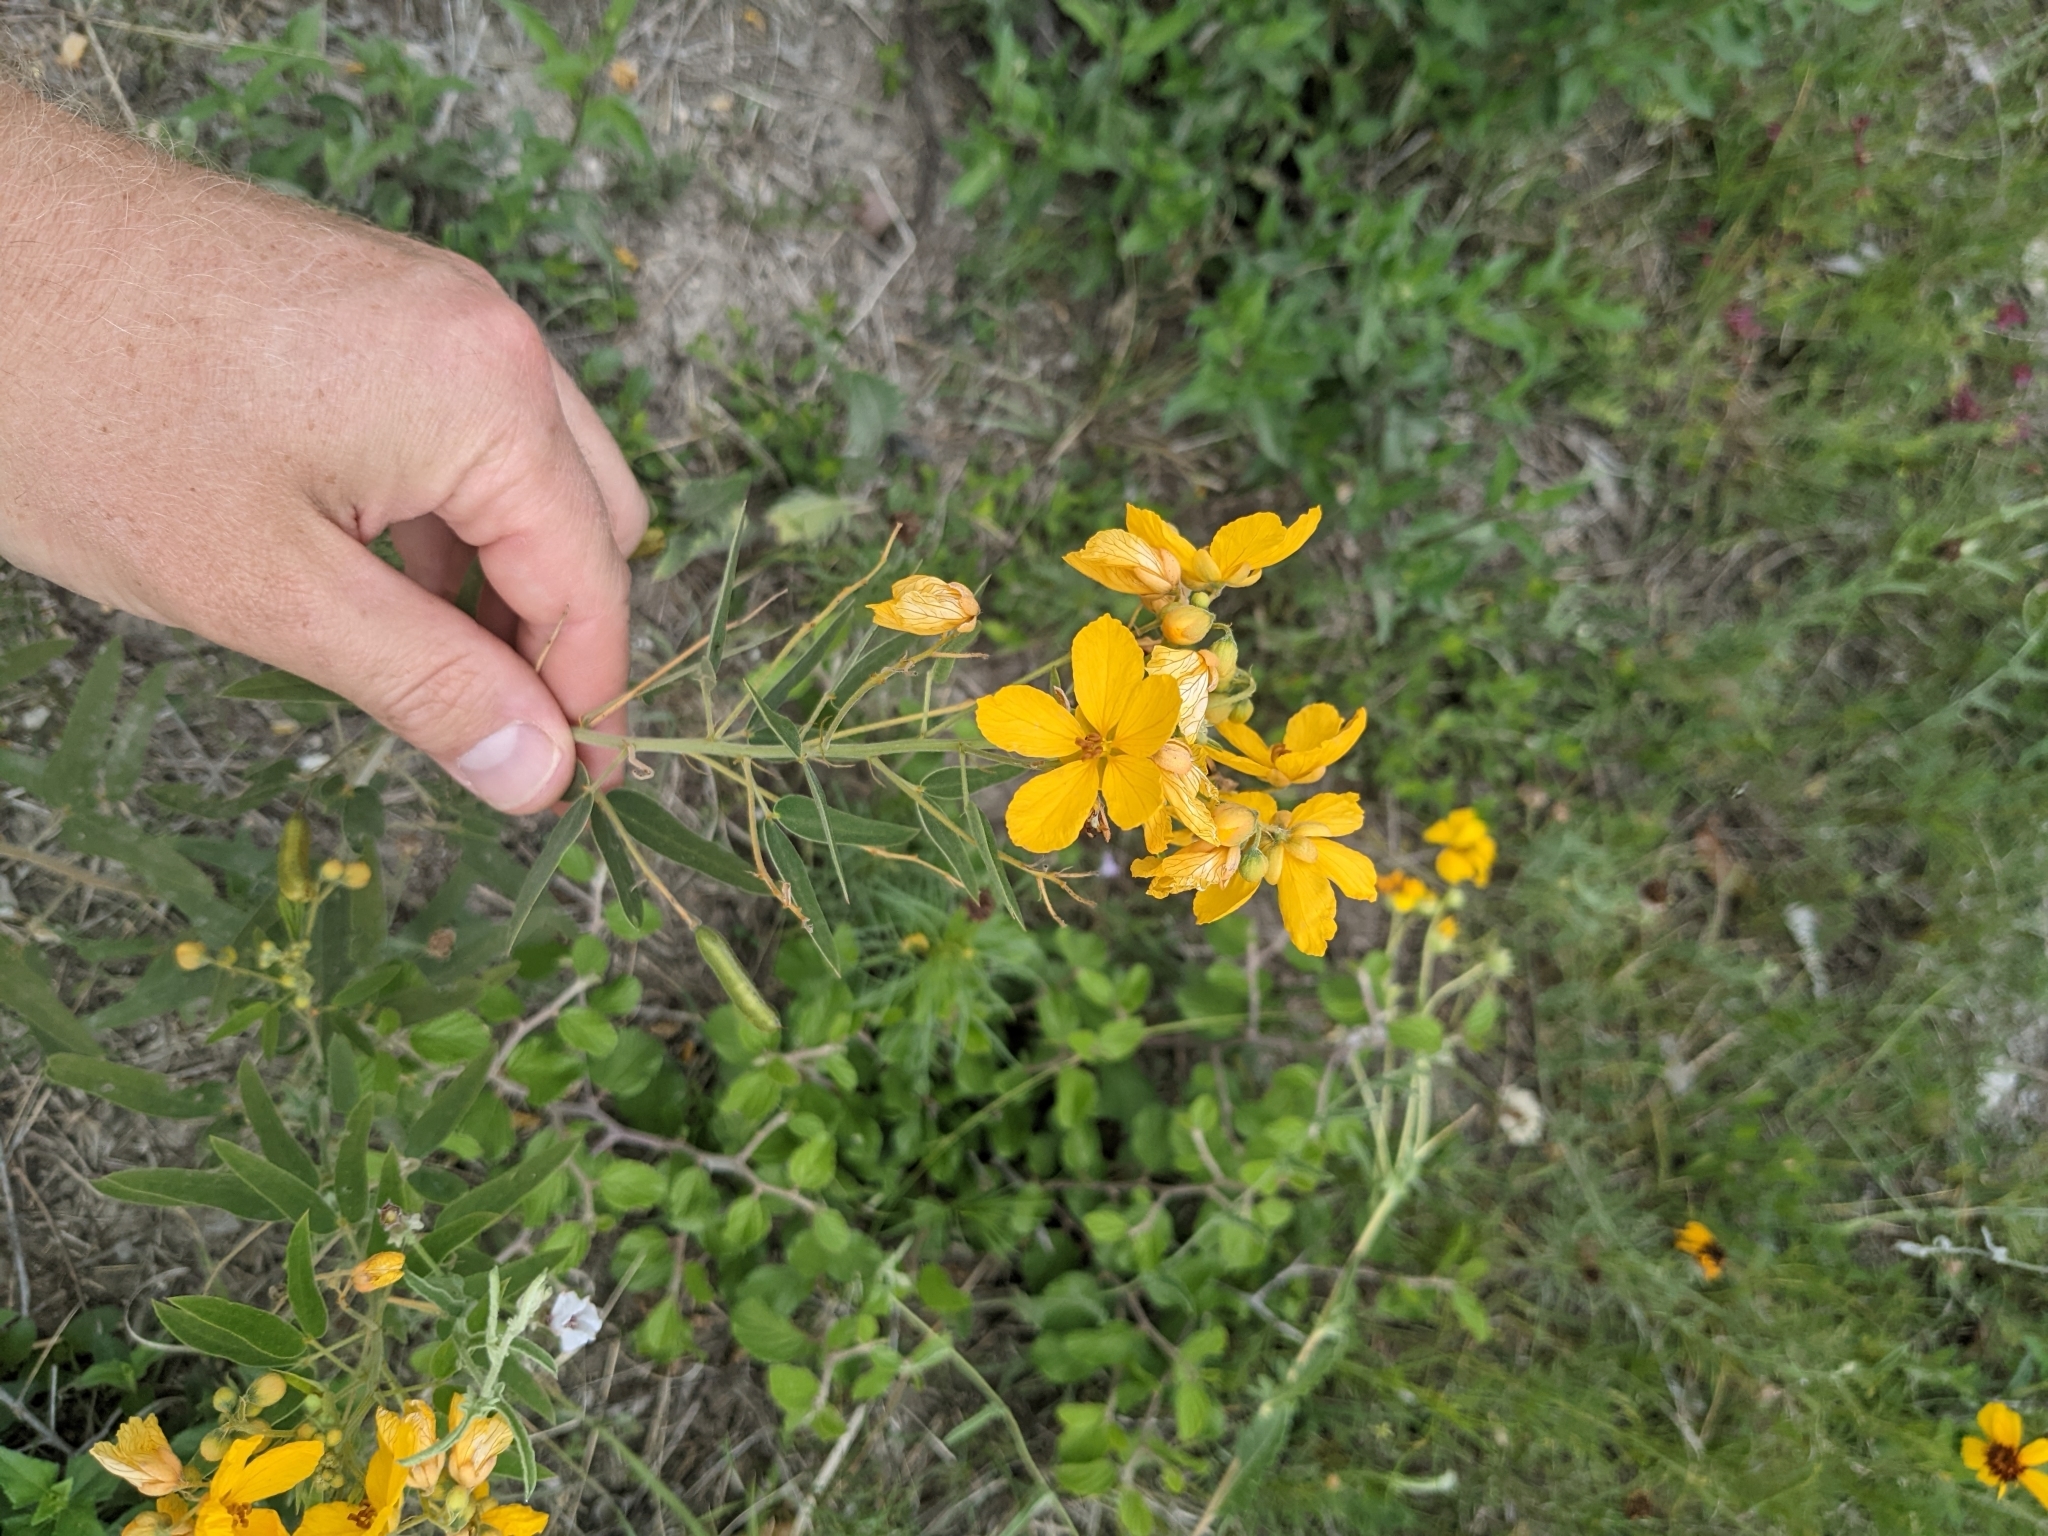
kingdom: Plantae
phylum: Tracheophyta
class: Magnoliopsida
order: Fabales
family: Fabaceae
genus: Senna
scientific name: Senna roemeriana
